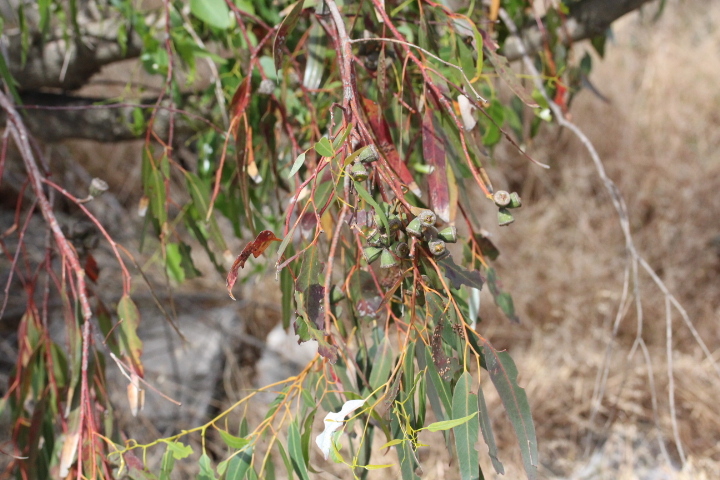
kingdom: Plantae
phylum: Tracheophyta
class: Magnoliopsida
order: Myrtales
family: Myrtaceae
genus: Eucalyptus
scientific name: Eucalyptus gomphocephala
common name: Tuart
